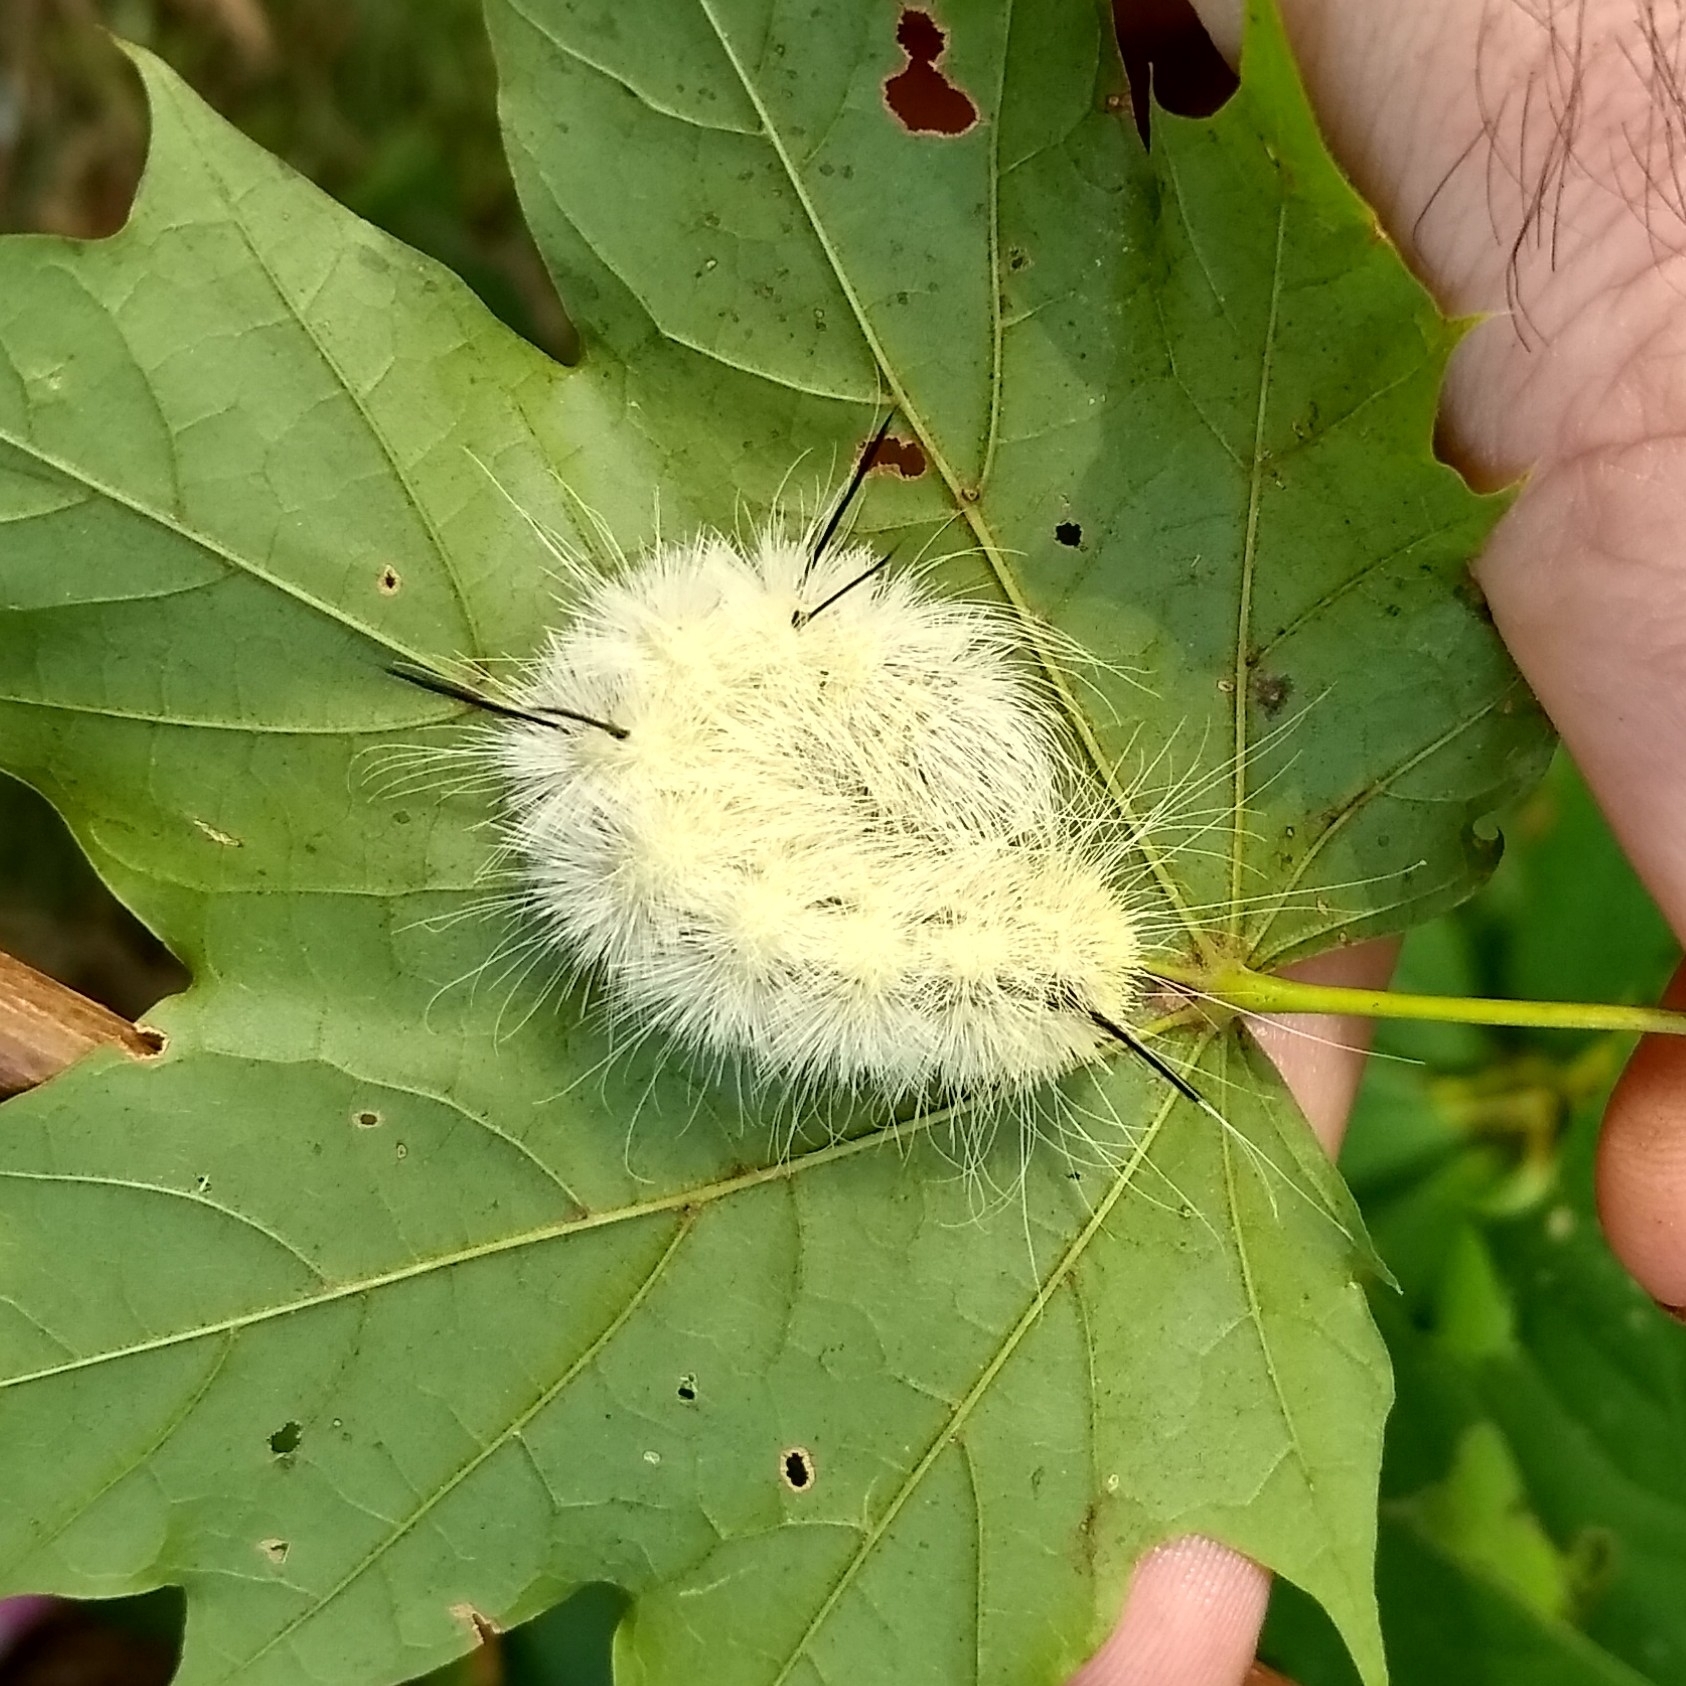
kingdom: Animalia
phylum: Arthropoda
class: Insecta
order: Lepidoptera
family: Noctuidae
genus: Acronicta
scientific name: Acronicta americana
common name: American dagger
